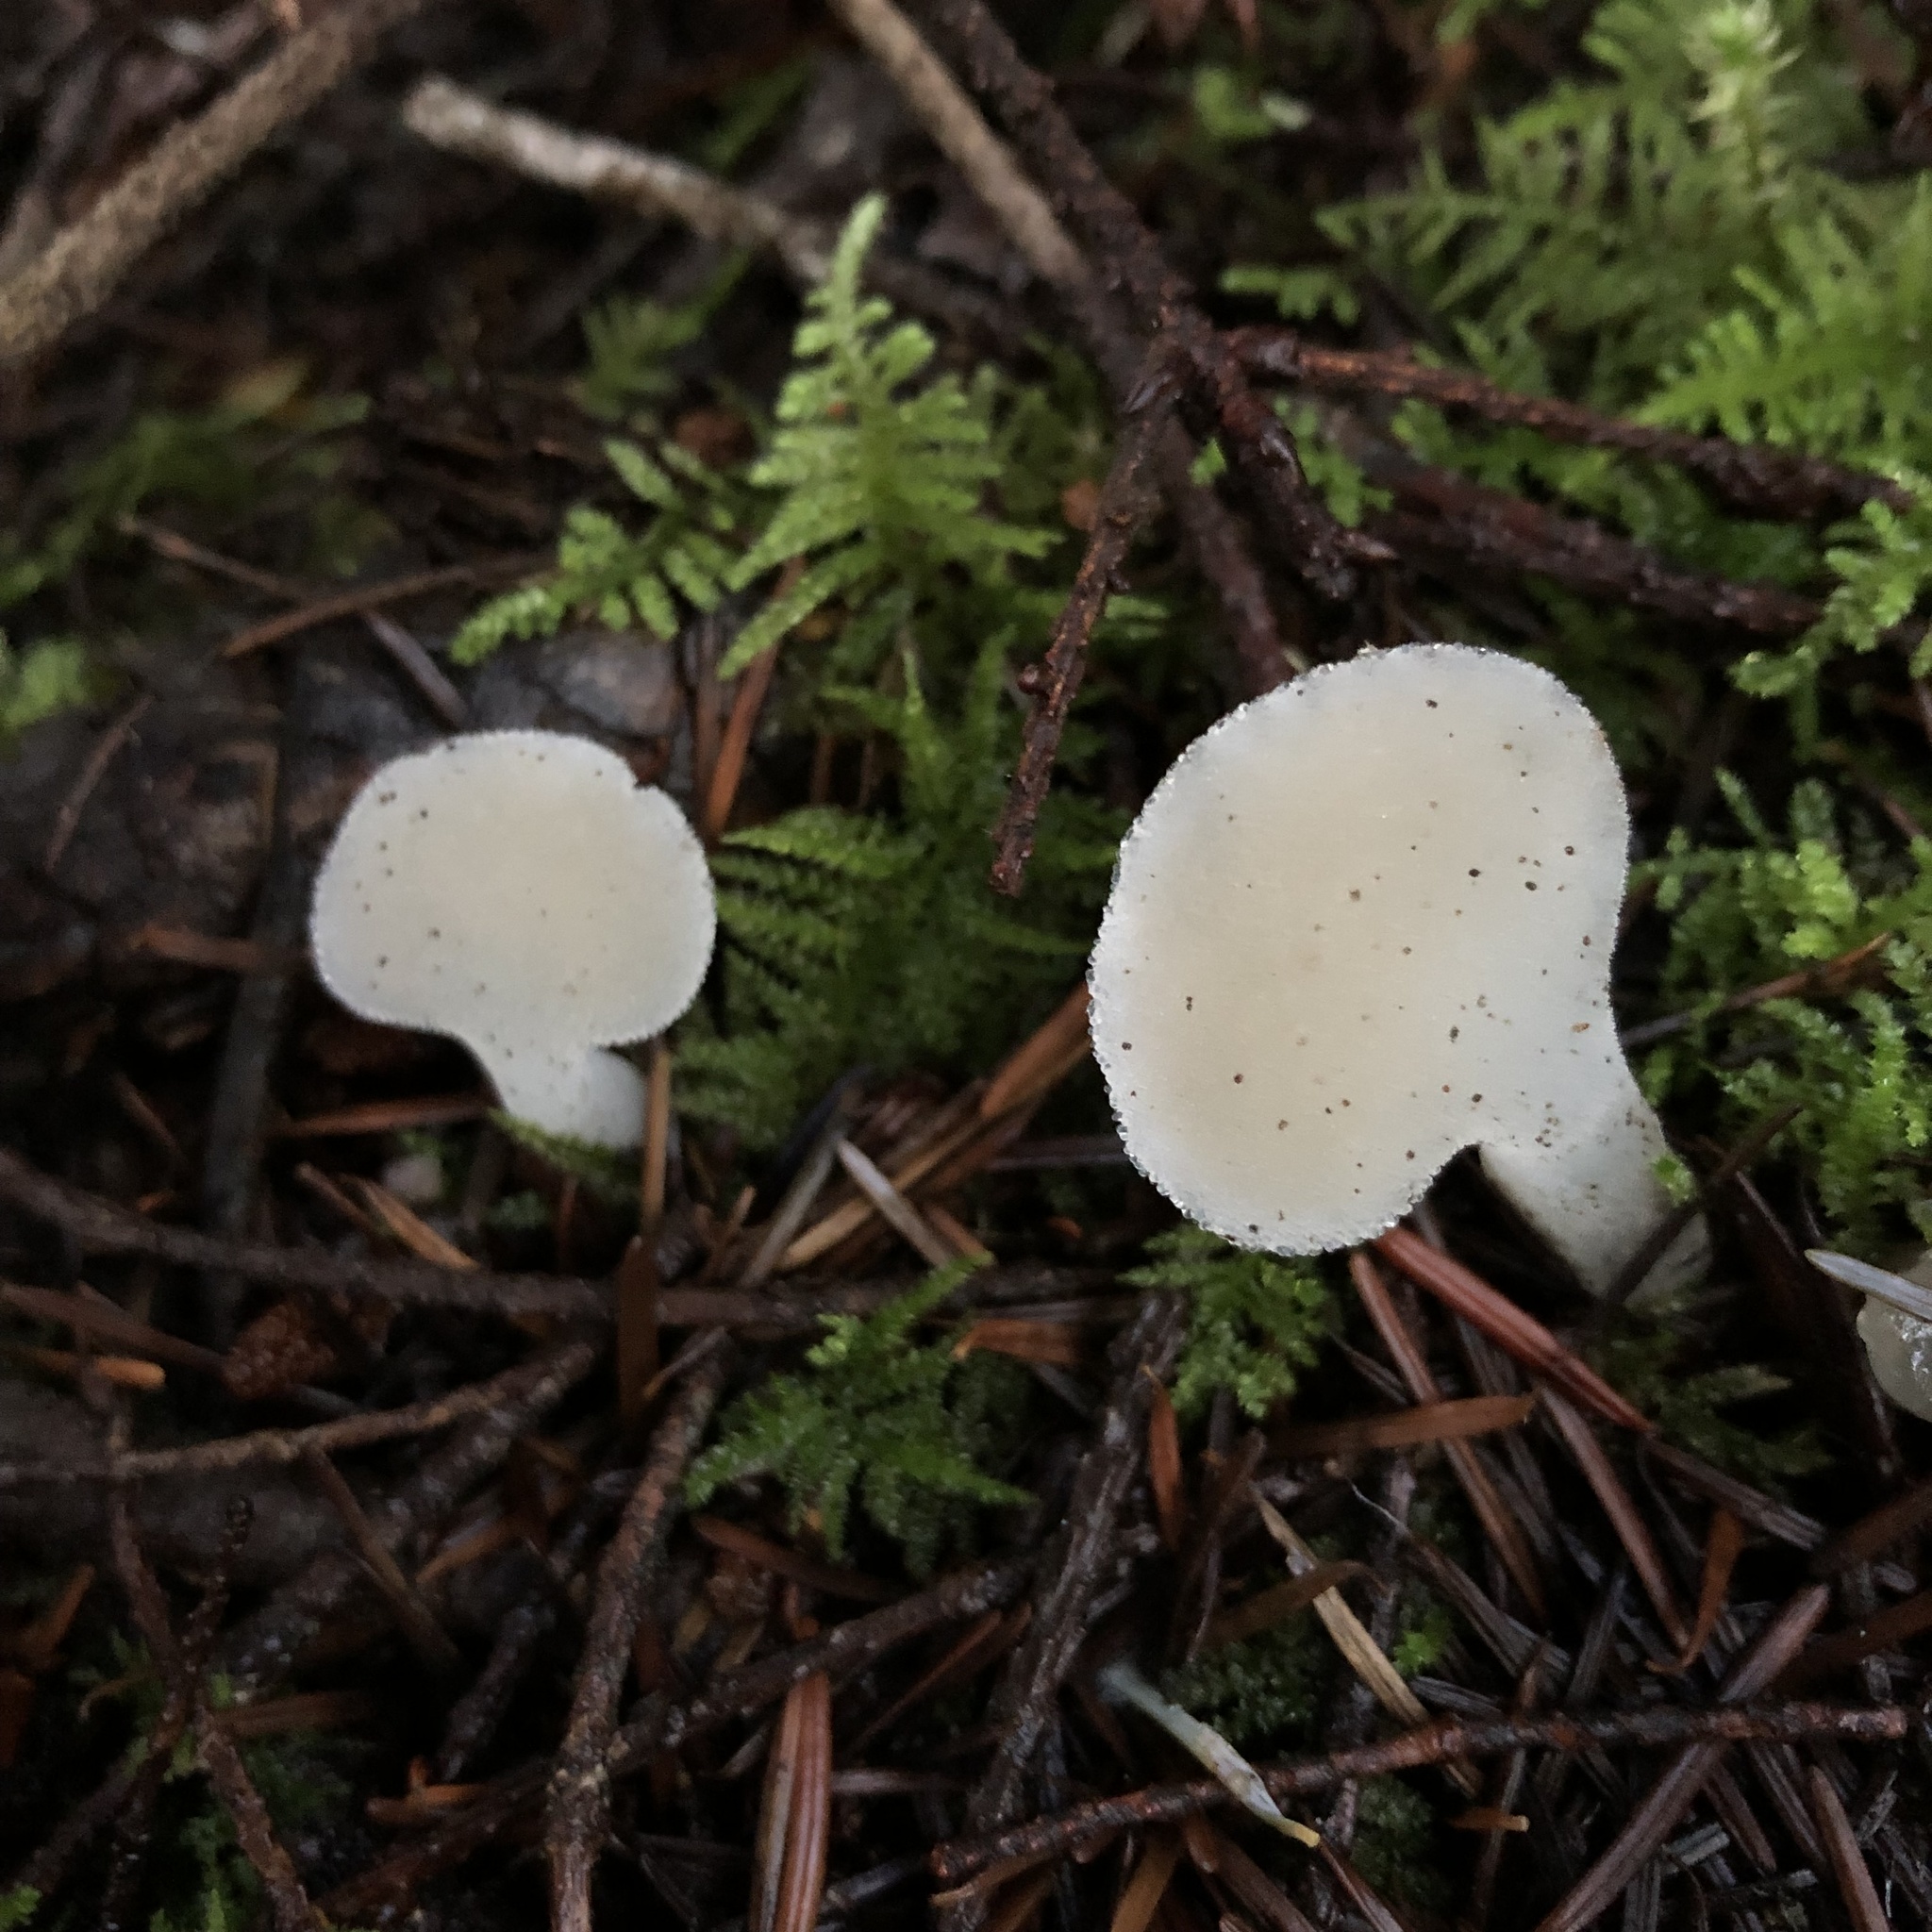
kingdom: Fungi
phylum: Basidiomycota
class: Agaricomycetes
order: Auriculariales
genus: Pseudohydnum
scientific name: Pseudohydnum gelatinosum
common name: Jelly tongue
